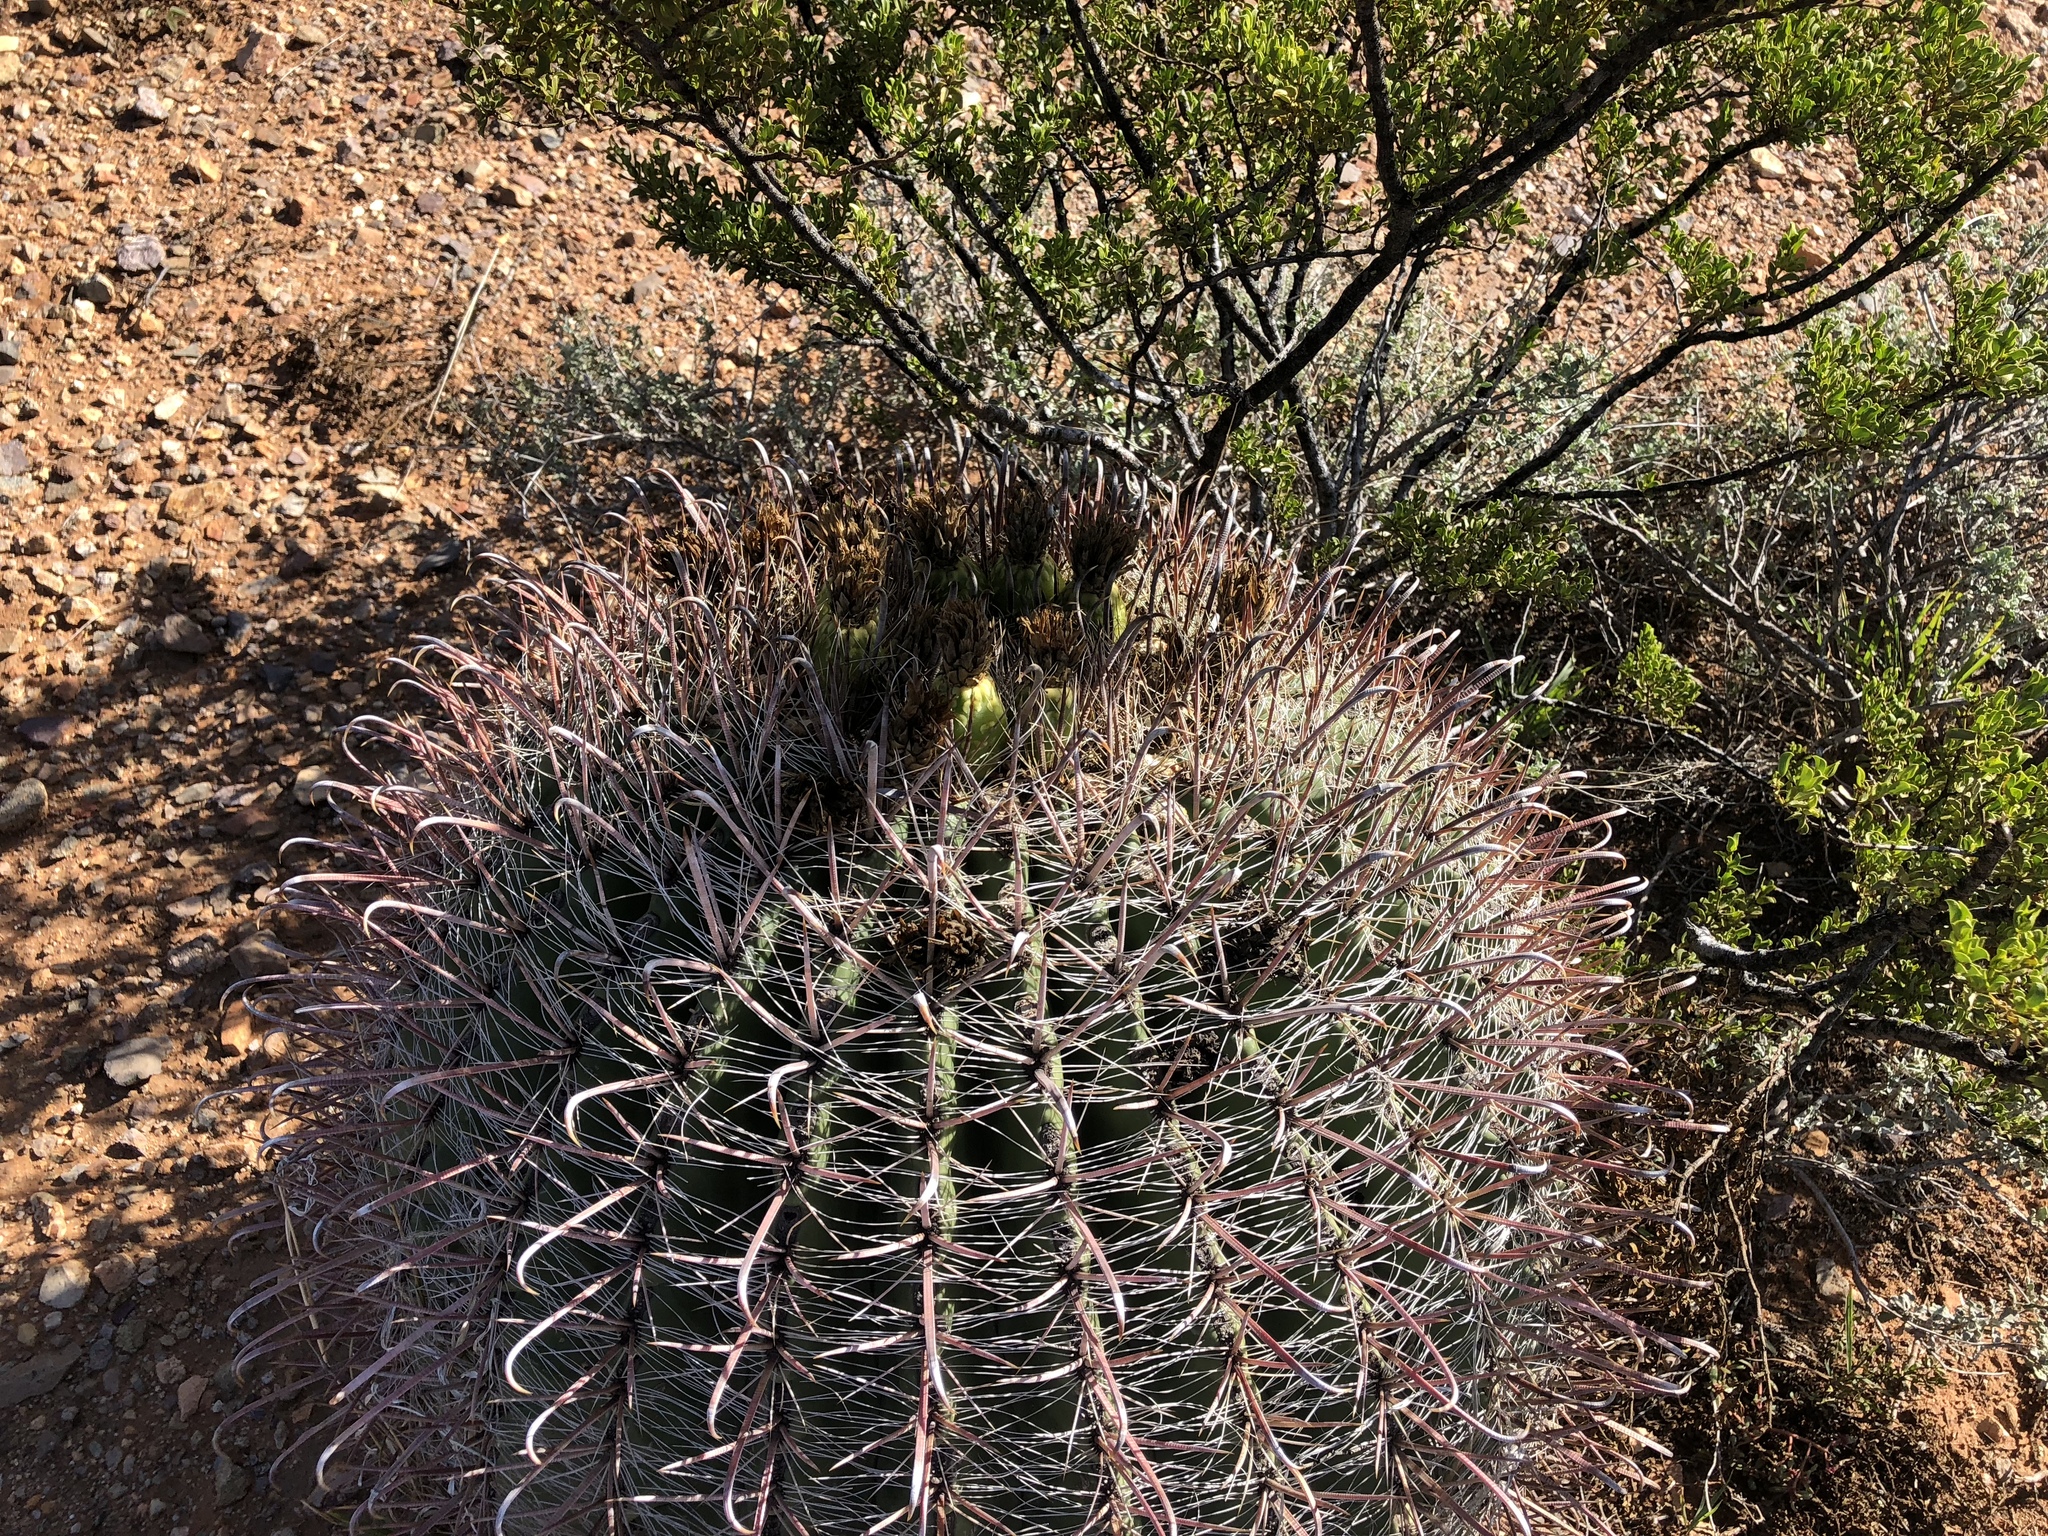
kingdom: Plantae
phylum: Tracheophyta
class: Magnoliopsida
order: Caryophyllales
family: Cactaceae
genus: Ferocactus
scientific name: Ferocactus wislizeni
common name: Candy barrel cactus
